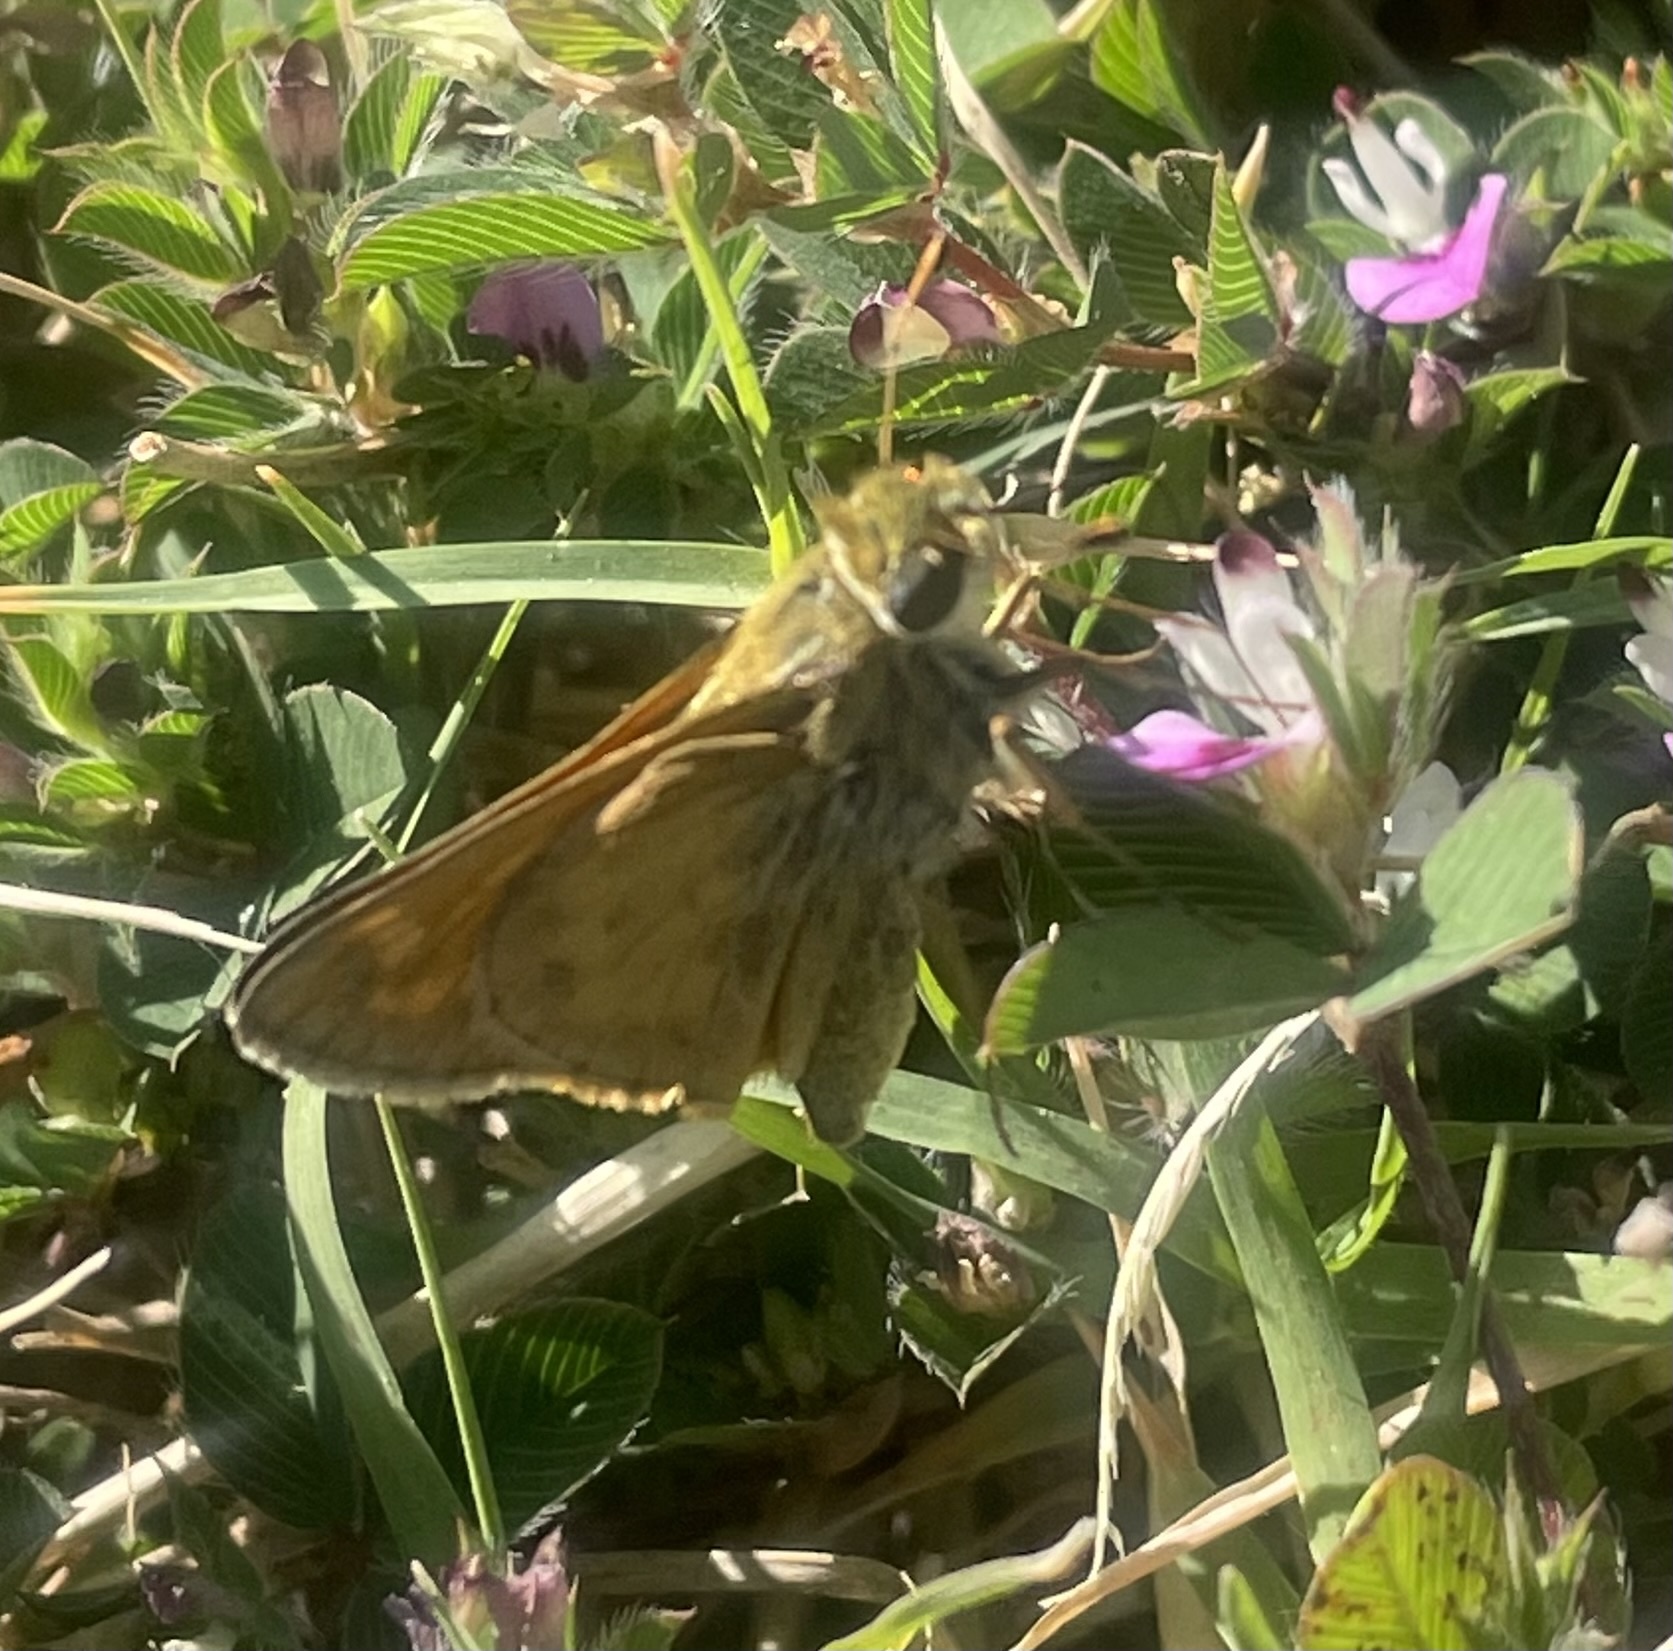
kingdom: Animalia
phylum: Arthropoda
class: Insecta
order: Lepidoptera
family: Hesperiidae
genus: Atalopedes
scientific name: Atalopedes
